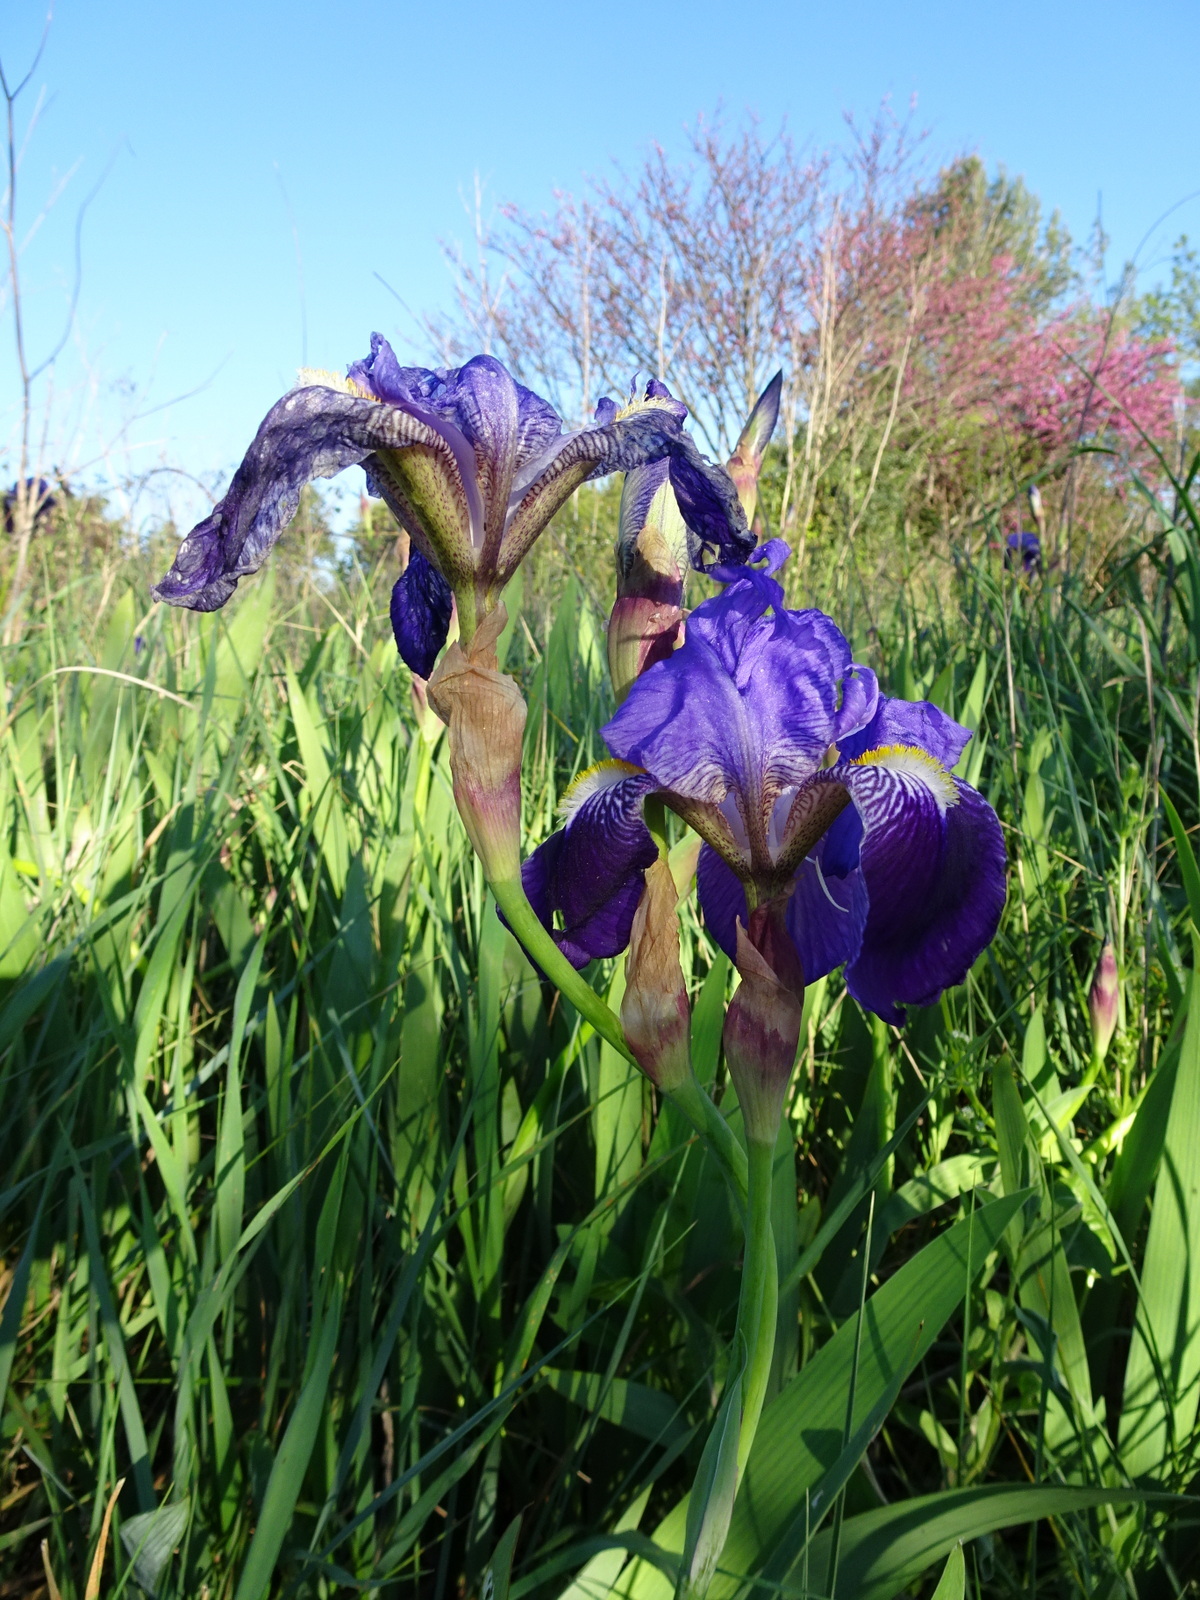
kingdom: Plantae
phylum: Tracheophyta
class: Liliopsida
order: Asparagales
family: Iridaceae
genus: Iris
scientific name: Iris germanica
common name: German iris
